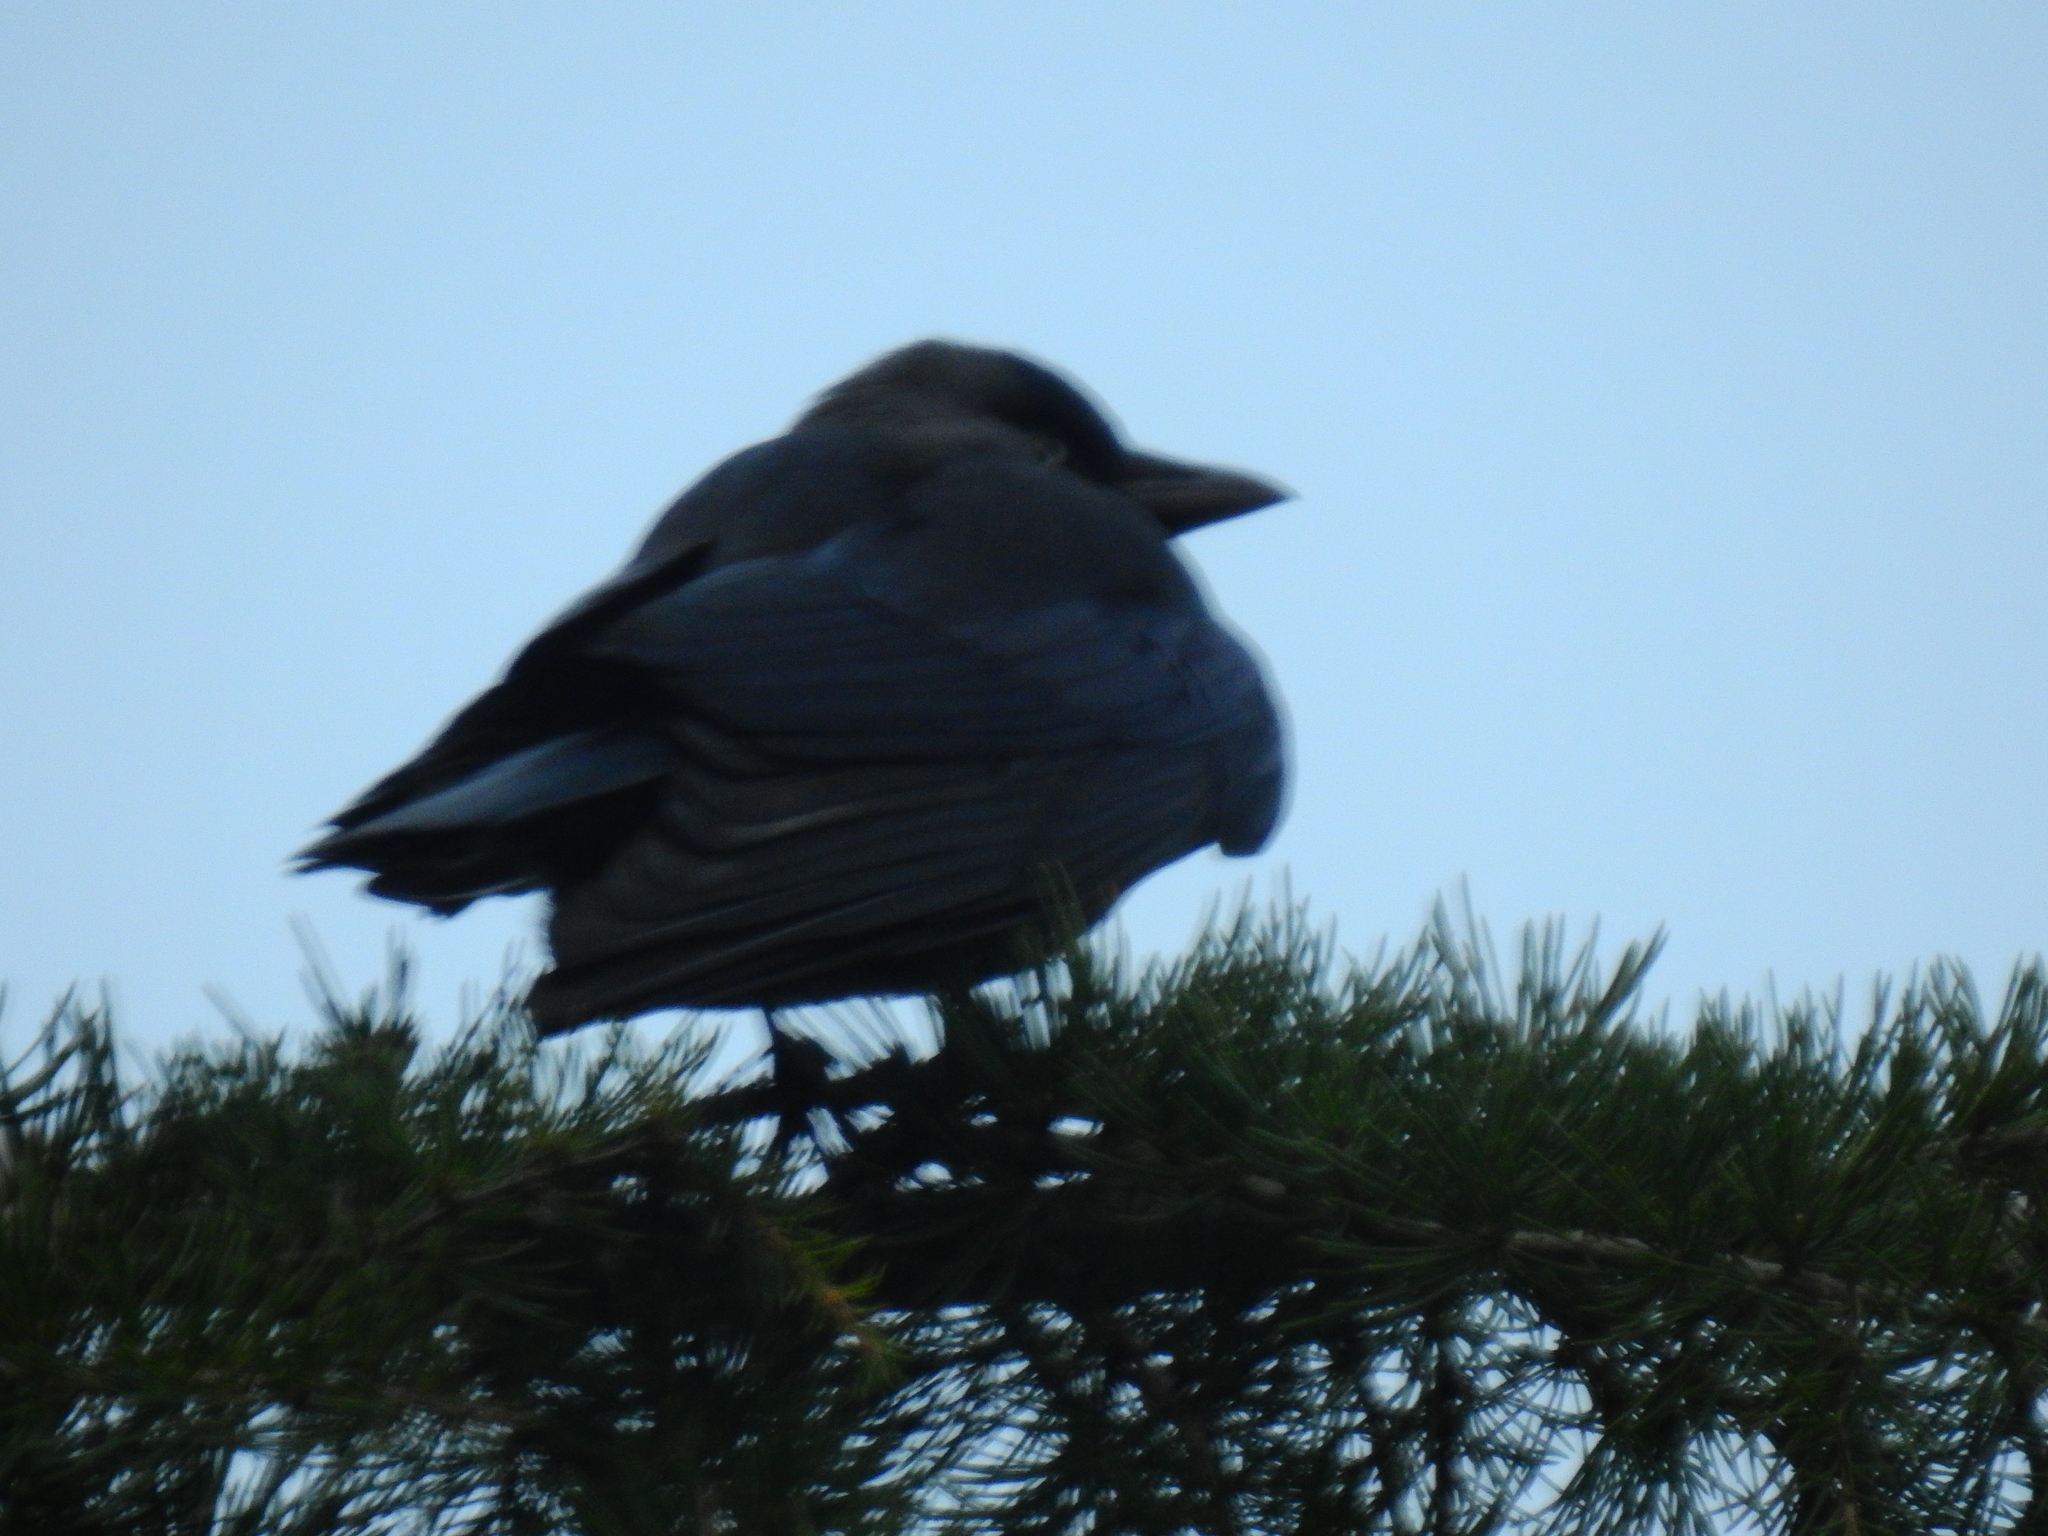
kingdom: Animalia
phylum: Chordata
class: Aves
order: Passeriformes
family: Corvidae
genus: Coloeus
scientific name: Coloeus monedula
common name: Western jackdaw
